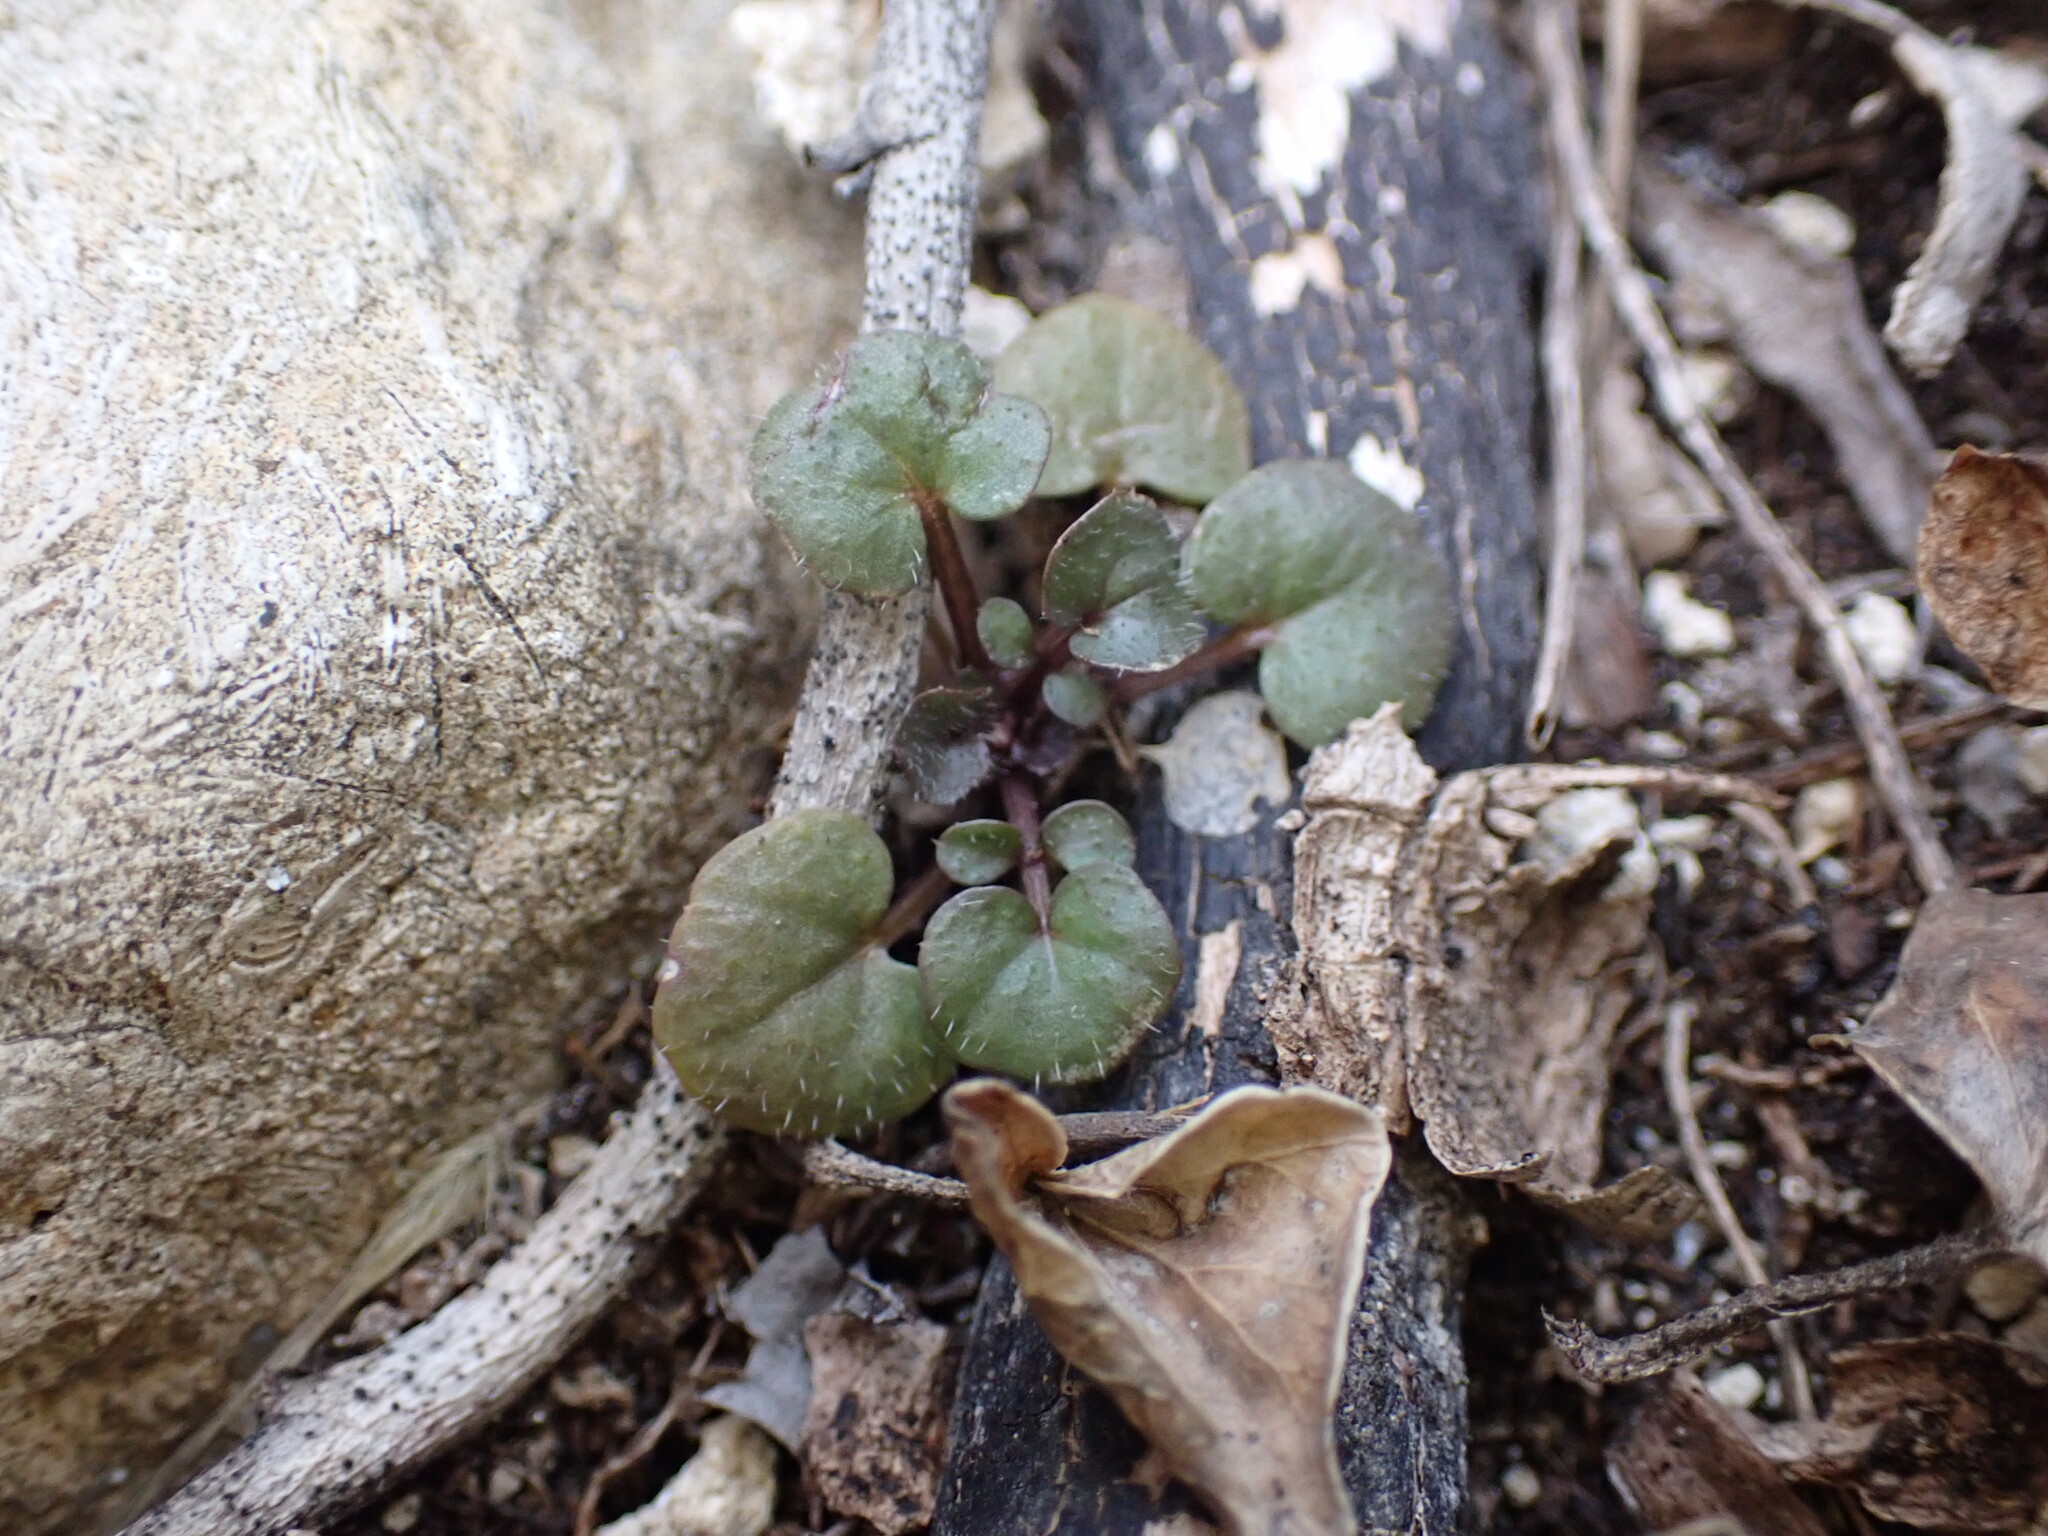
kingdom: Plantae
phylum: Tracheophyta
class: Magnoliopsida
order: Brassicales
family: Brassicaceae
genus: Cardamine
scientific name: Cardamine hirsuta
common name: Hairy bittercress
